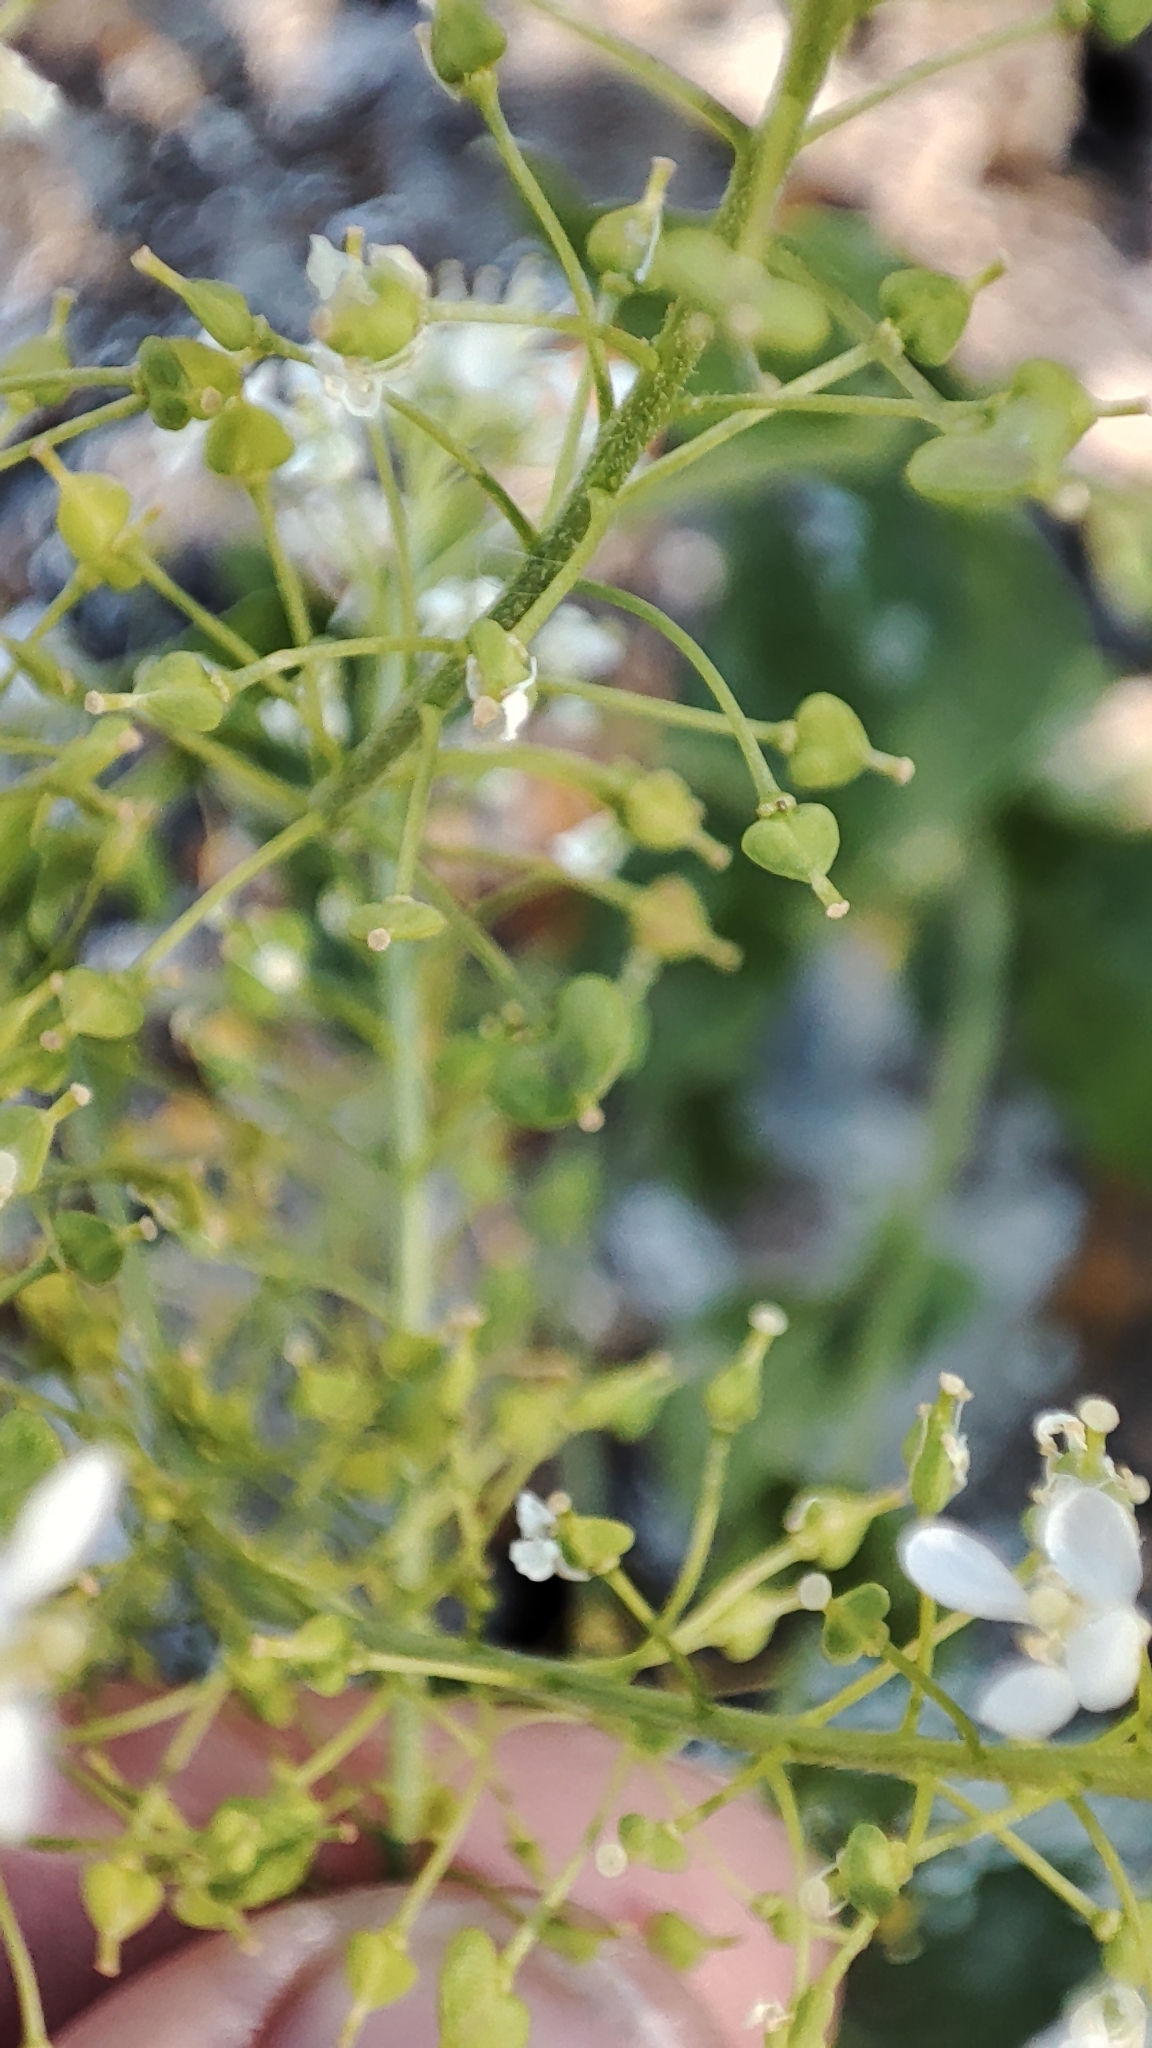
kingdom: Plantae
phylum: Tracheophyta
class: Magnoliopsida
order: Brassicales
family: Brassicaceae
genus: Lepidium
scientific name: Lepidium draba
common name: Hoary cress
